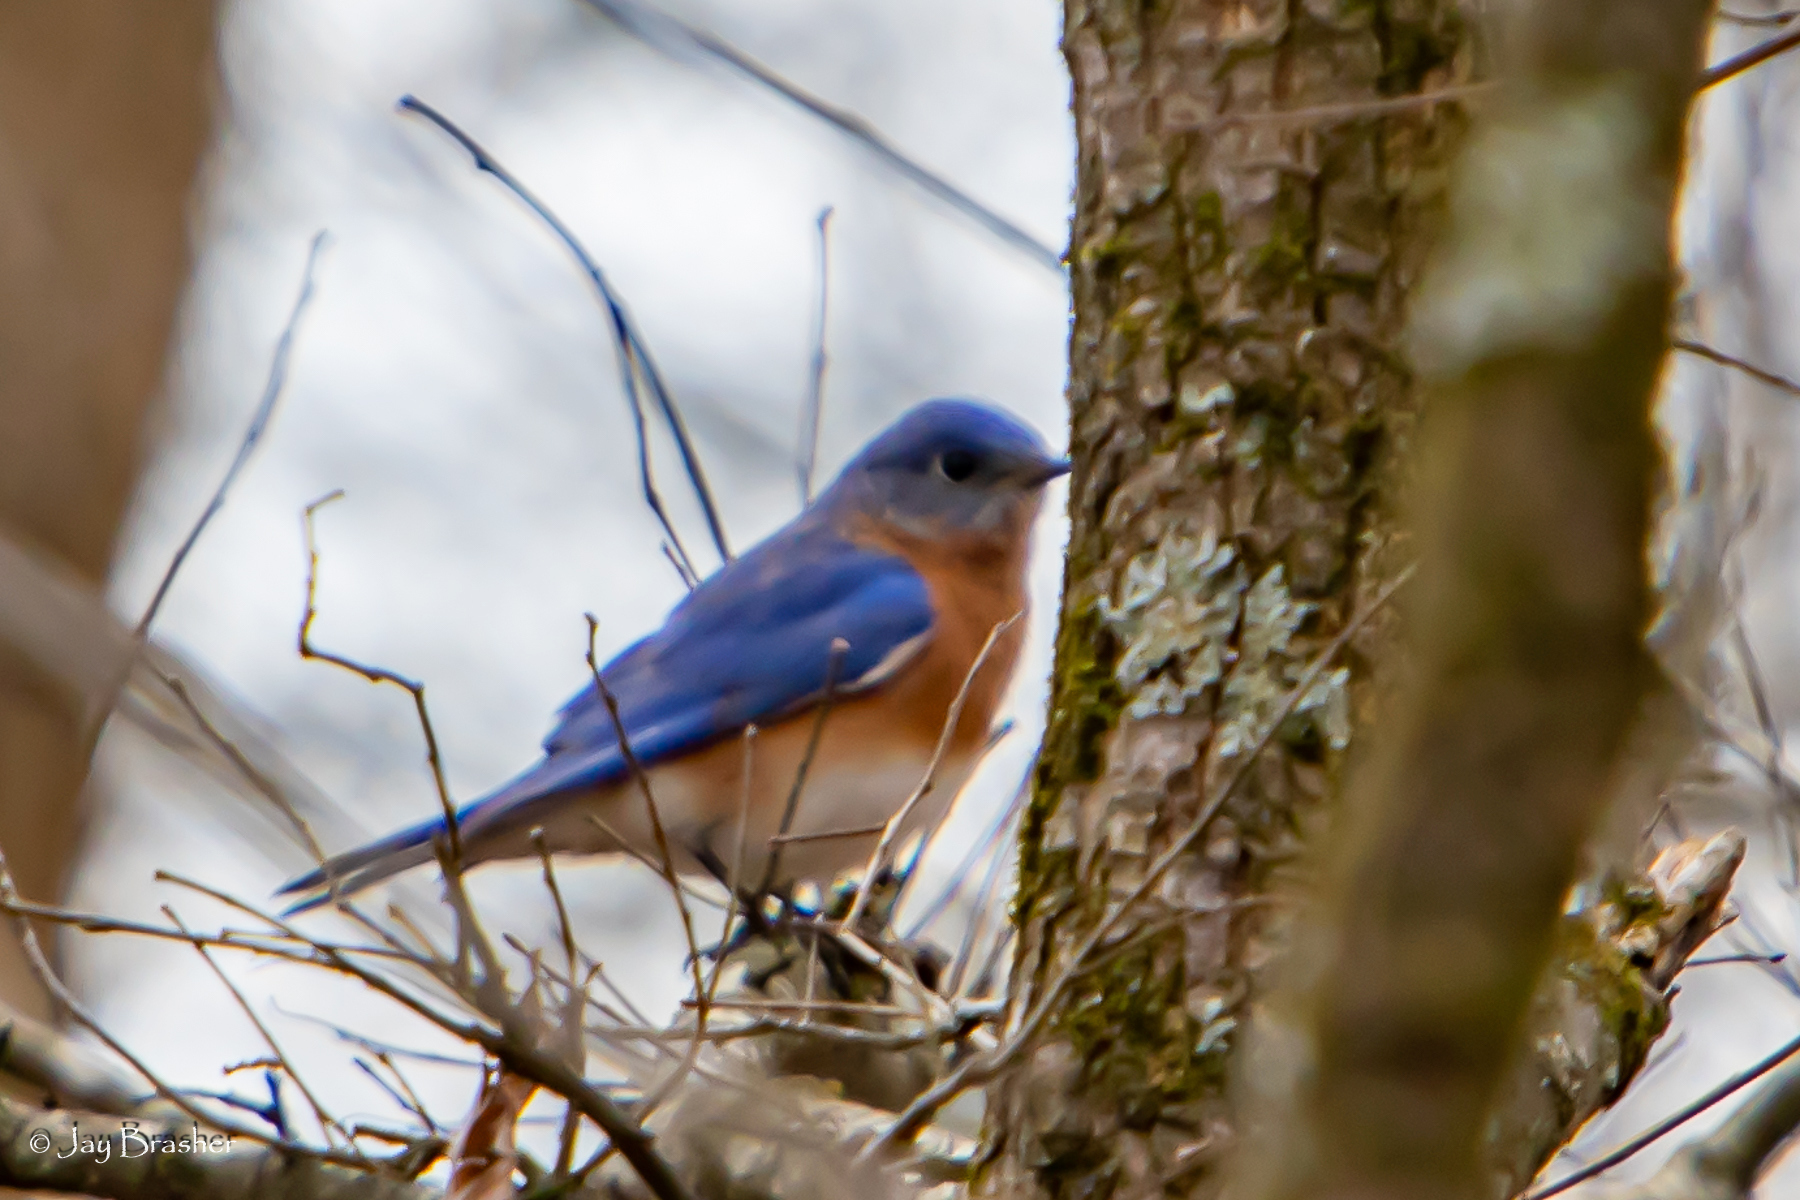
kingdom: Animalia
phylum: Chordata
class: Aves
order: Passeriformes
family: Turdidae
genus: Sialia
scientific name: Sialia sialis
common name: Eastern bluebird
